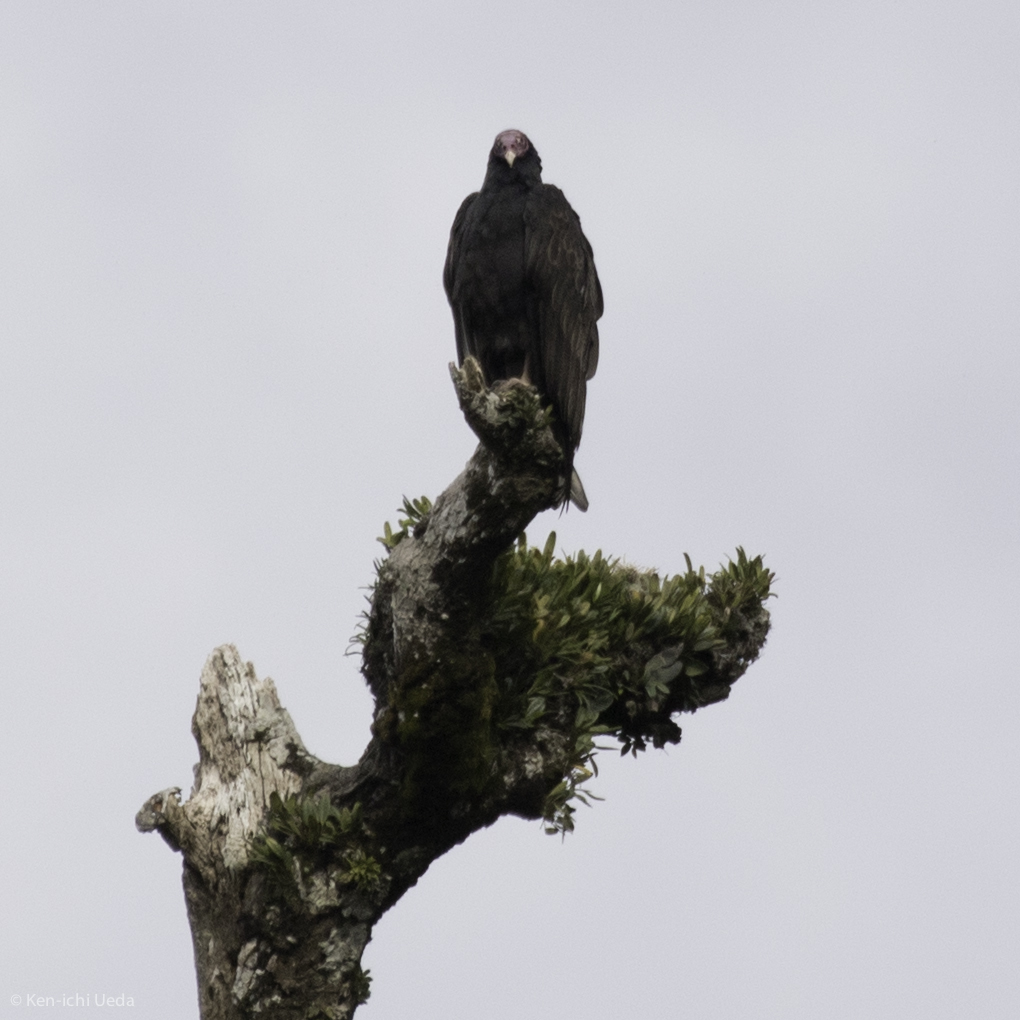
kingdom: Animalia
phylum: Chordata
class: Aves
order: Accipitriformes
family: Cathartidae
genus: Cathartes
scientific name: Cathartes aura
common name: Turkey vulture
